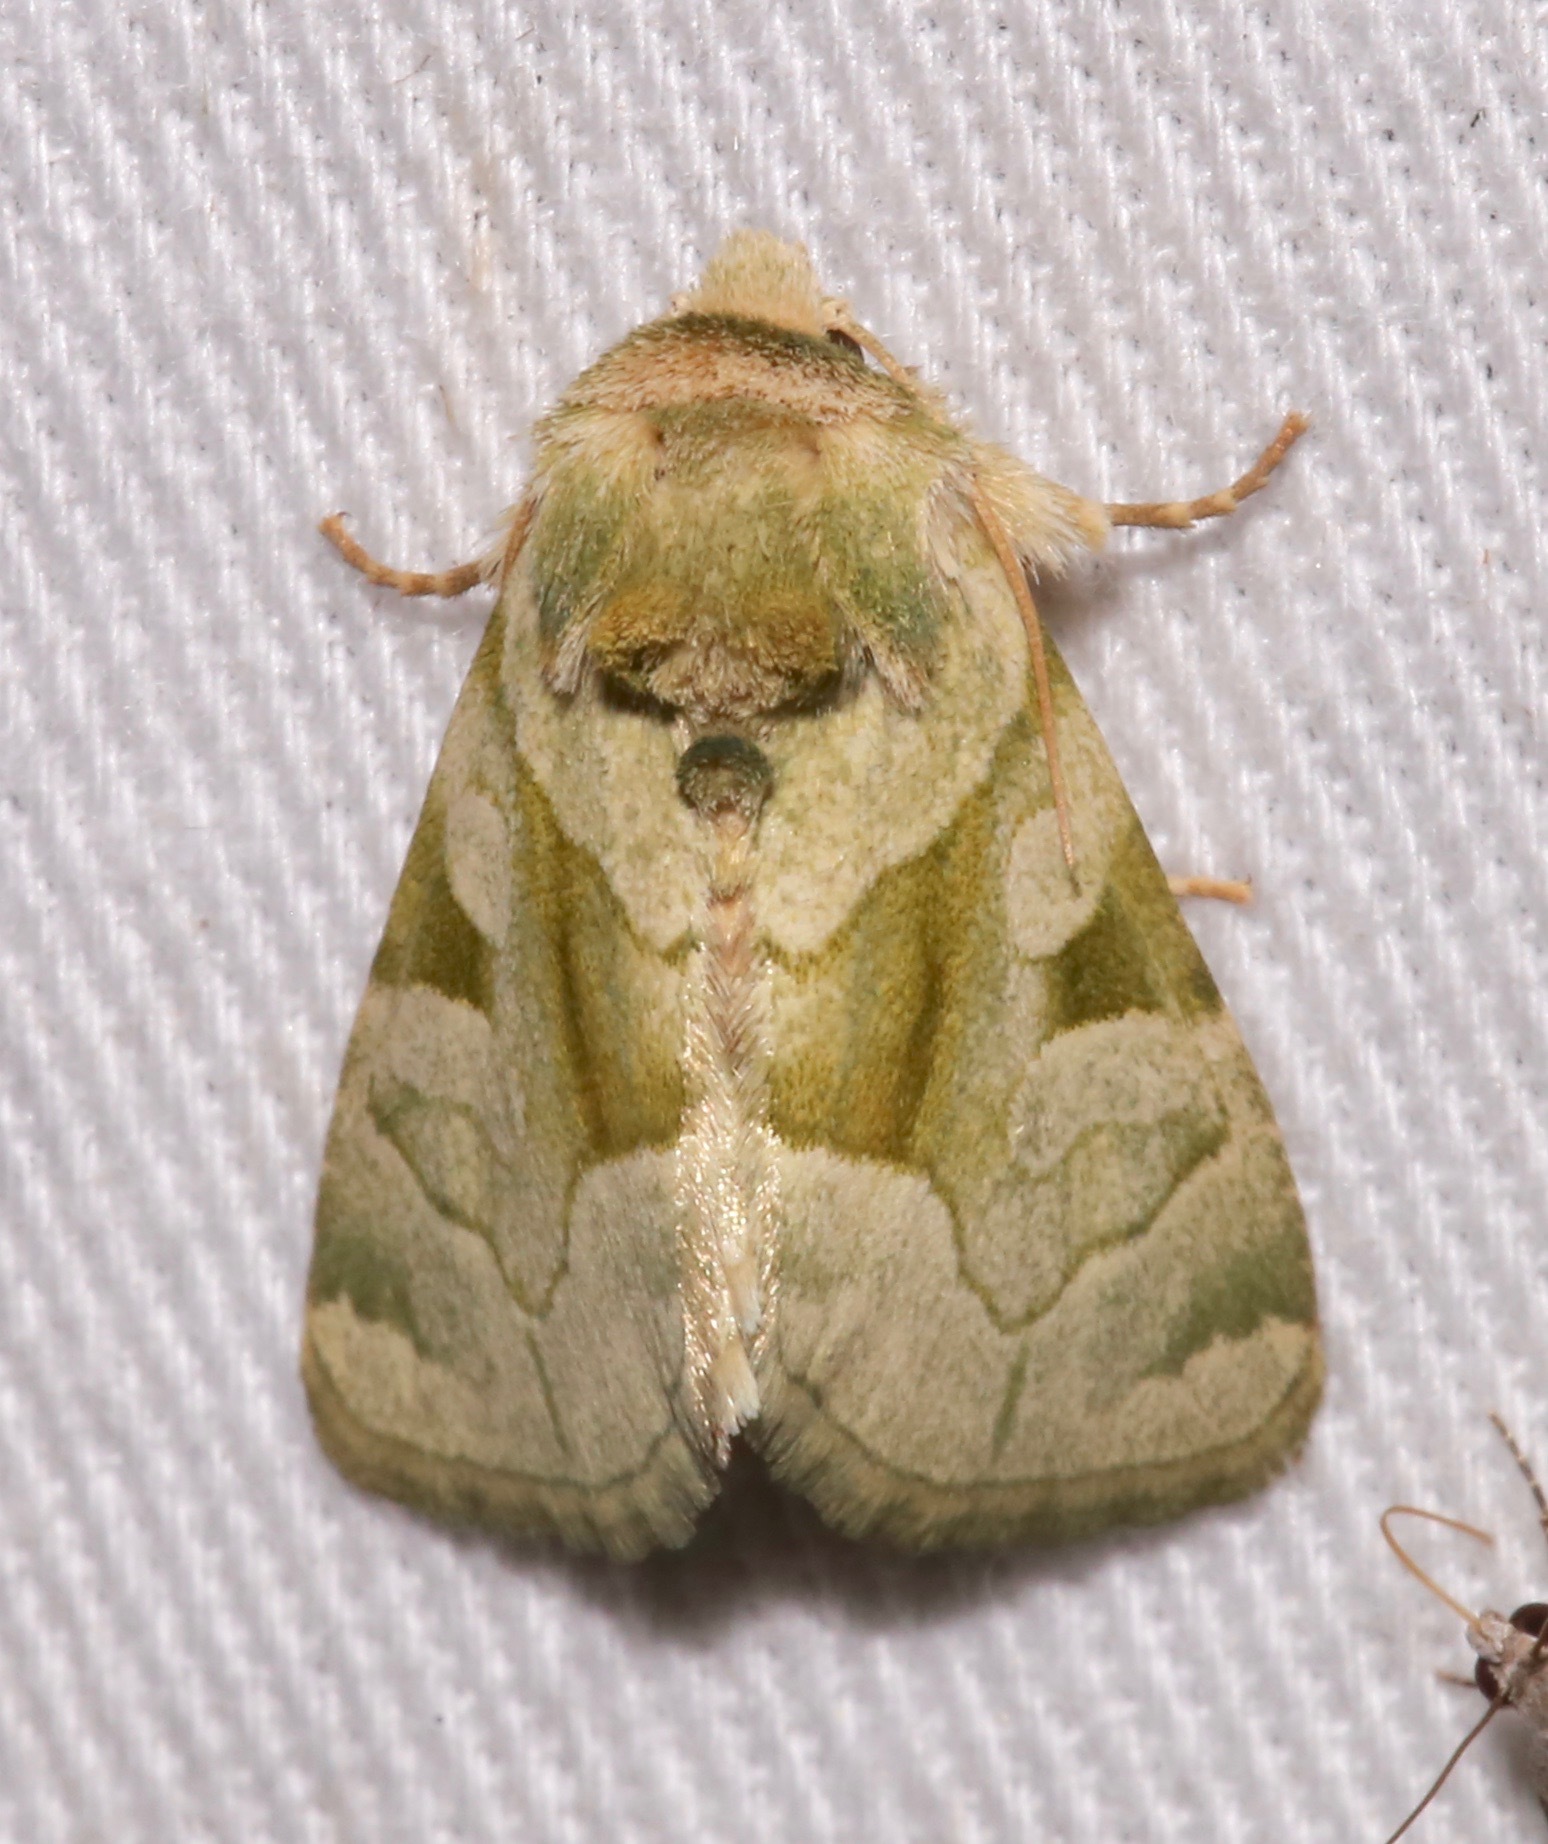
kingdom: Animalia
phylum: Arthropoda
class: Insecta
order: Lepidoptera
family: Noctuidae
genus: Oslaria
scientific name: Oslaria viridifera
